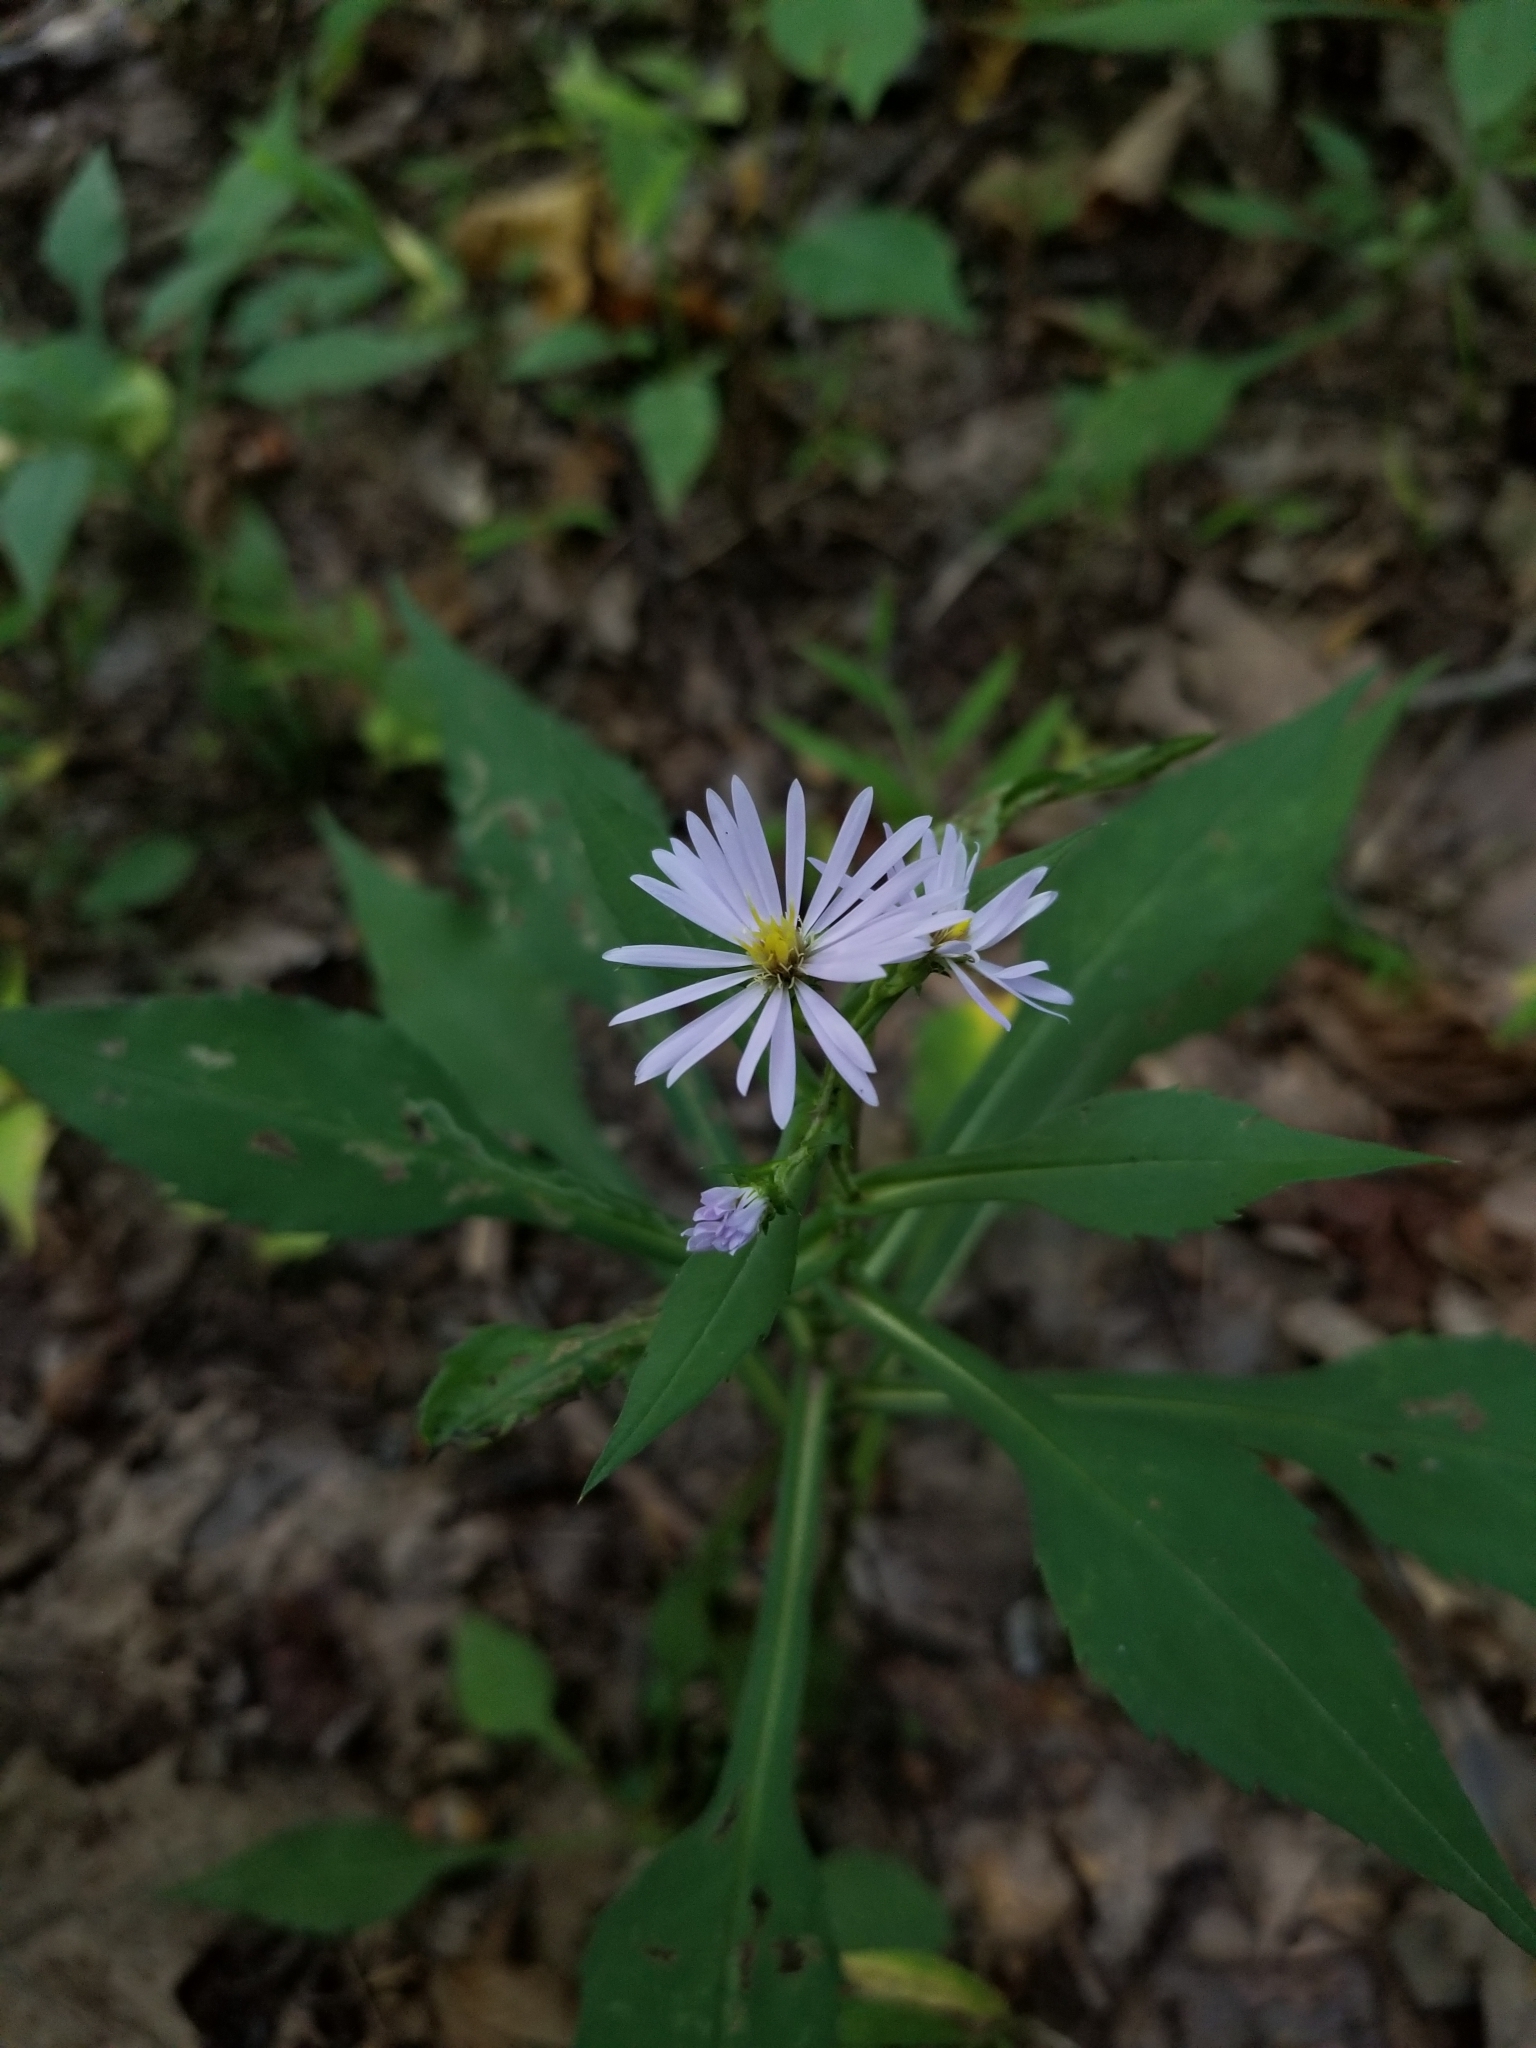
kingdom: Plantae
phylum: Tracheophyta
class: Magnoliopsida
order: Asterales
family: Asteraceae
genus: Symphyotrichum
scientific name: Symphyotrichum prenanthoides
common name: Crooked-stem aster
